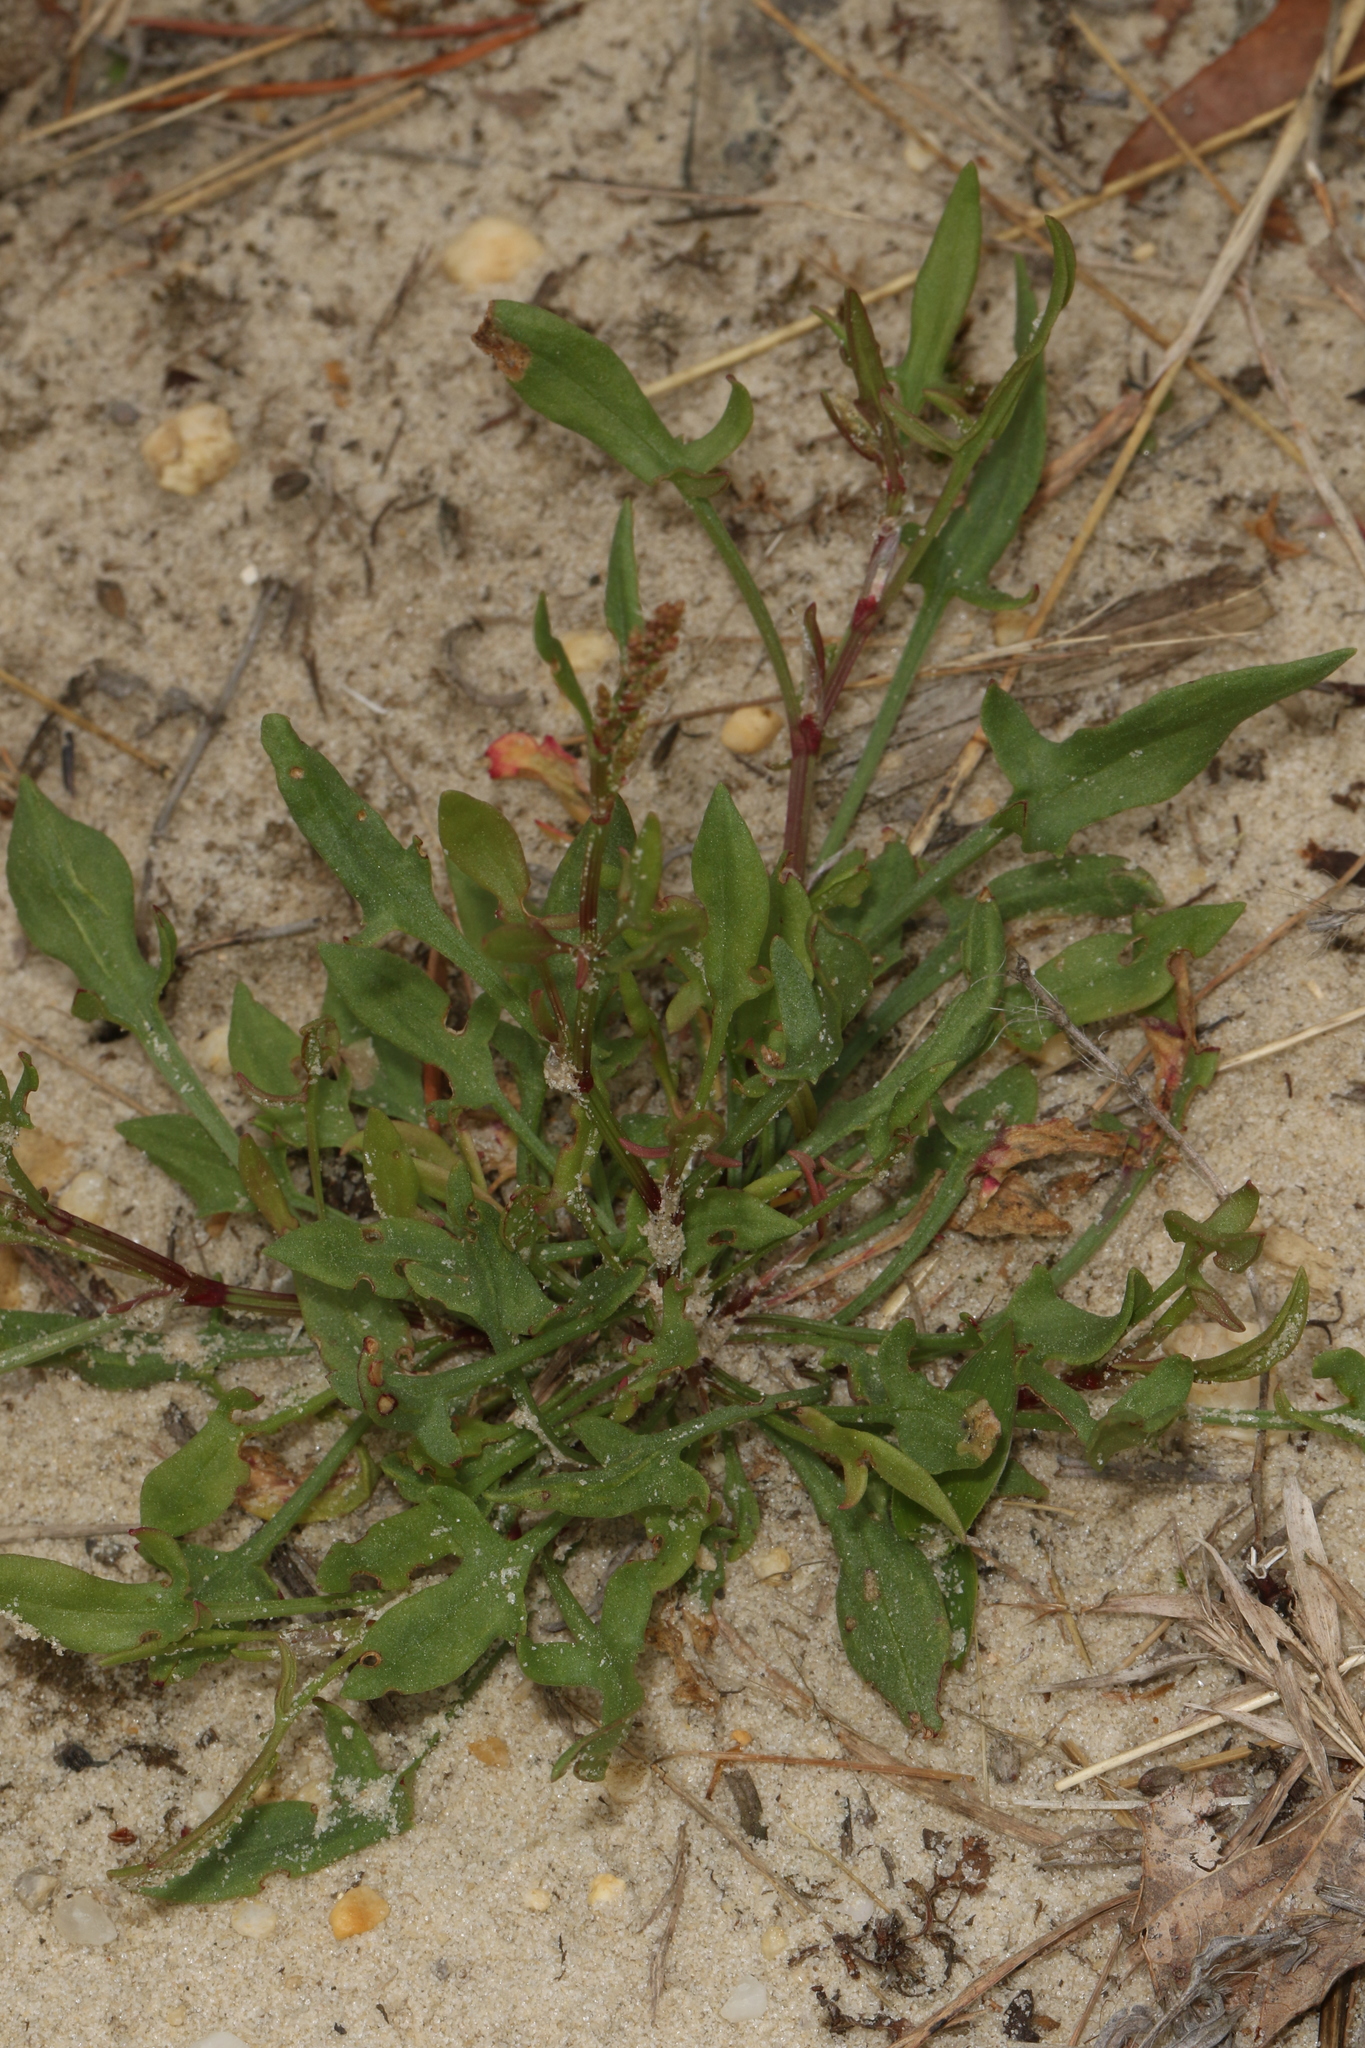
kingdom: Plantae
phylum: Tracheophyta
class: Magnoliopsida
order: Caryophyllales
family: Polygonaceae
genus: Rumex
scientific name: Rumex acetosella
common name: Common sheep sorrel
